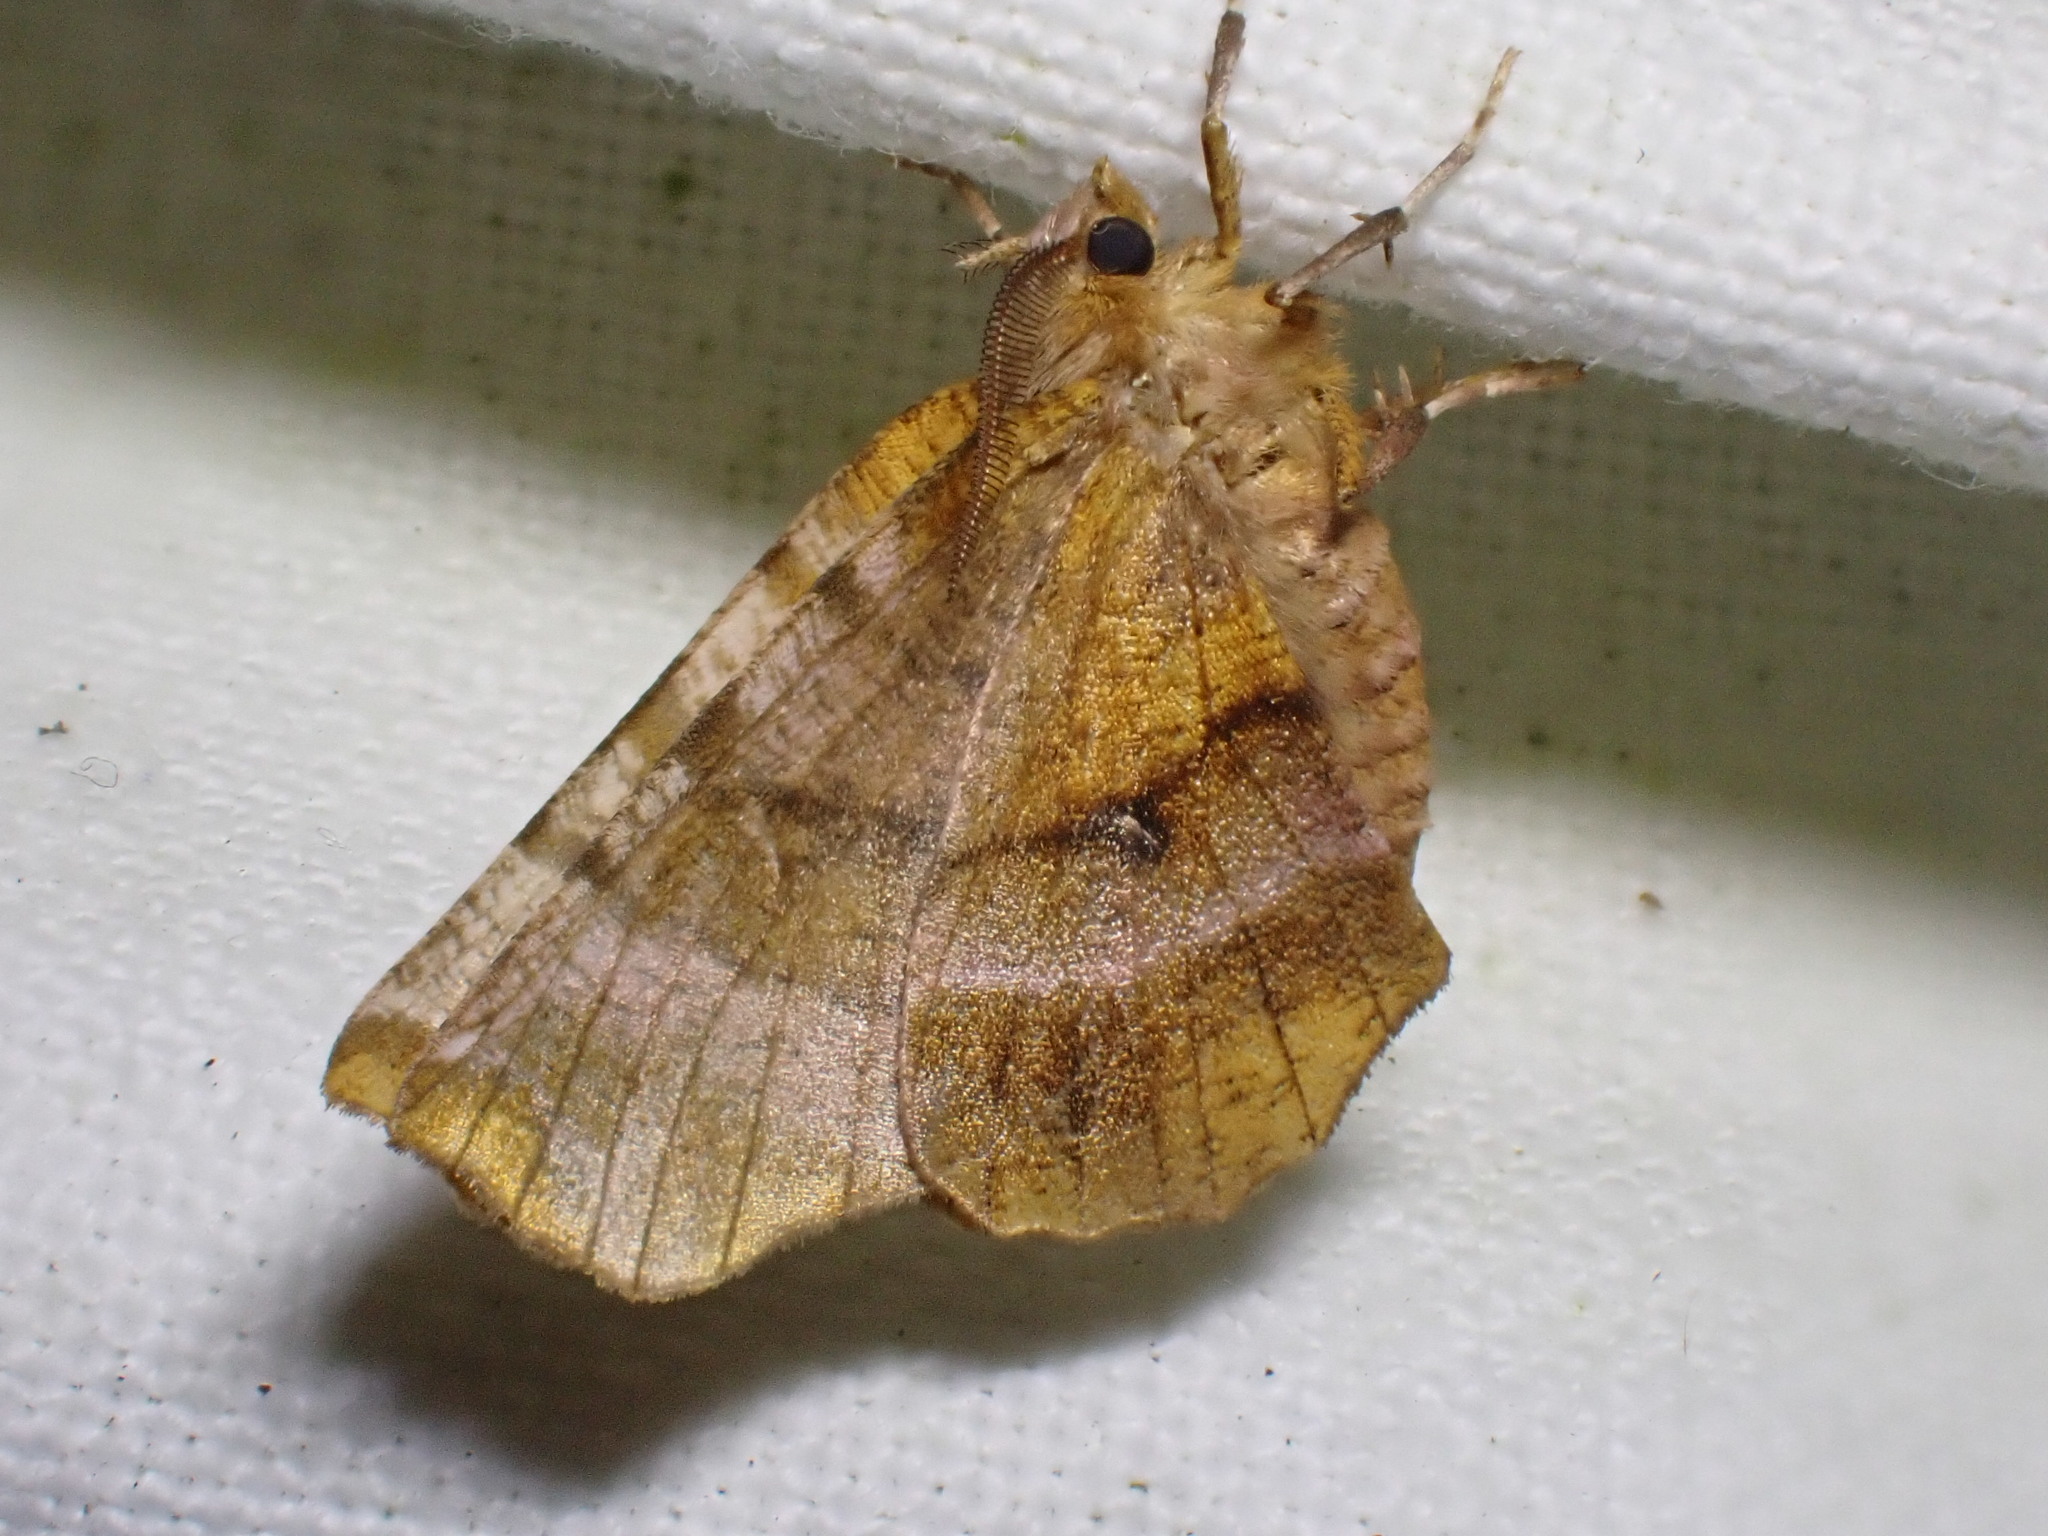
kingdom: Animalia
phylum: Arthropoda
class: Insecta
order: Lepidoptera
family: Geometridae
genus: Selenia
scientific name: Selenia dentaria
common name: Early thorn
